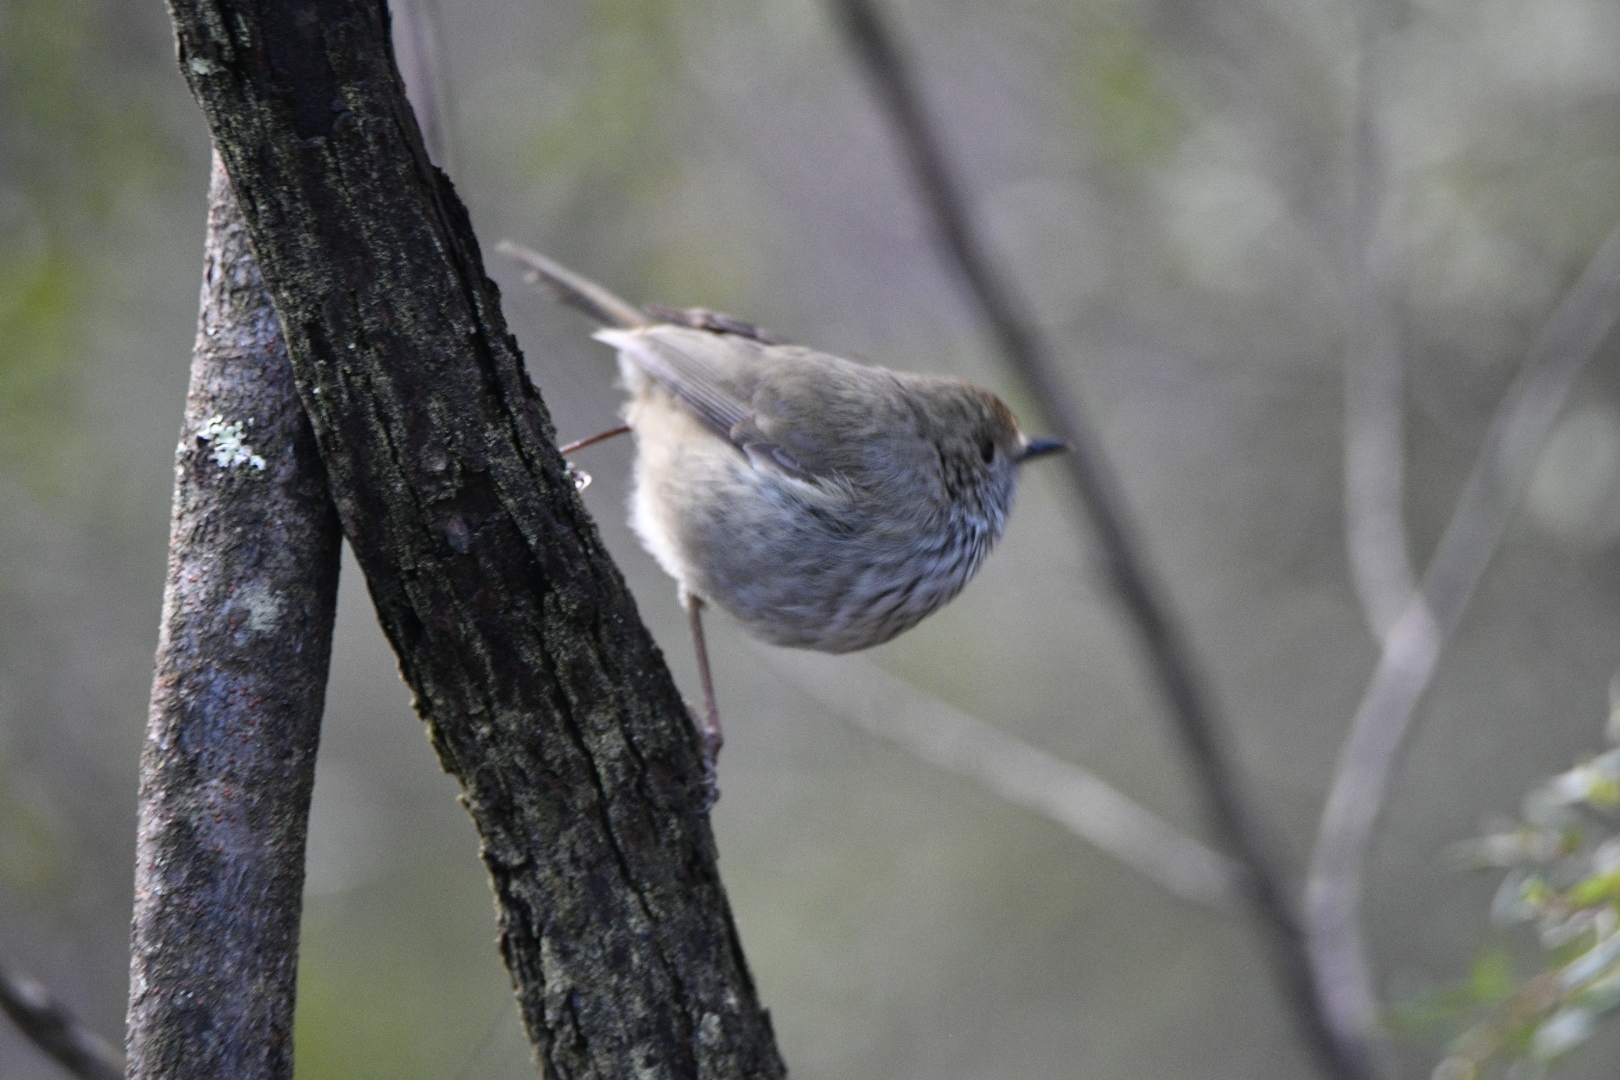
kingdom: Animalia
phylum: Chordata
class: Aves
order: Passeriformes
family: Acanthizidae
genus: Acanthiza
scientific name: Acanthiza pusilla
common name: Brown thornbill
